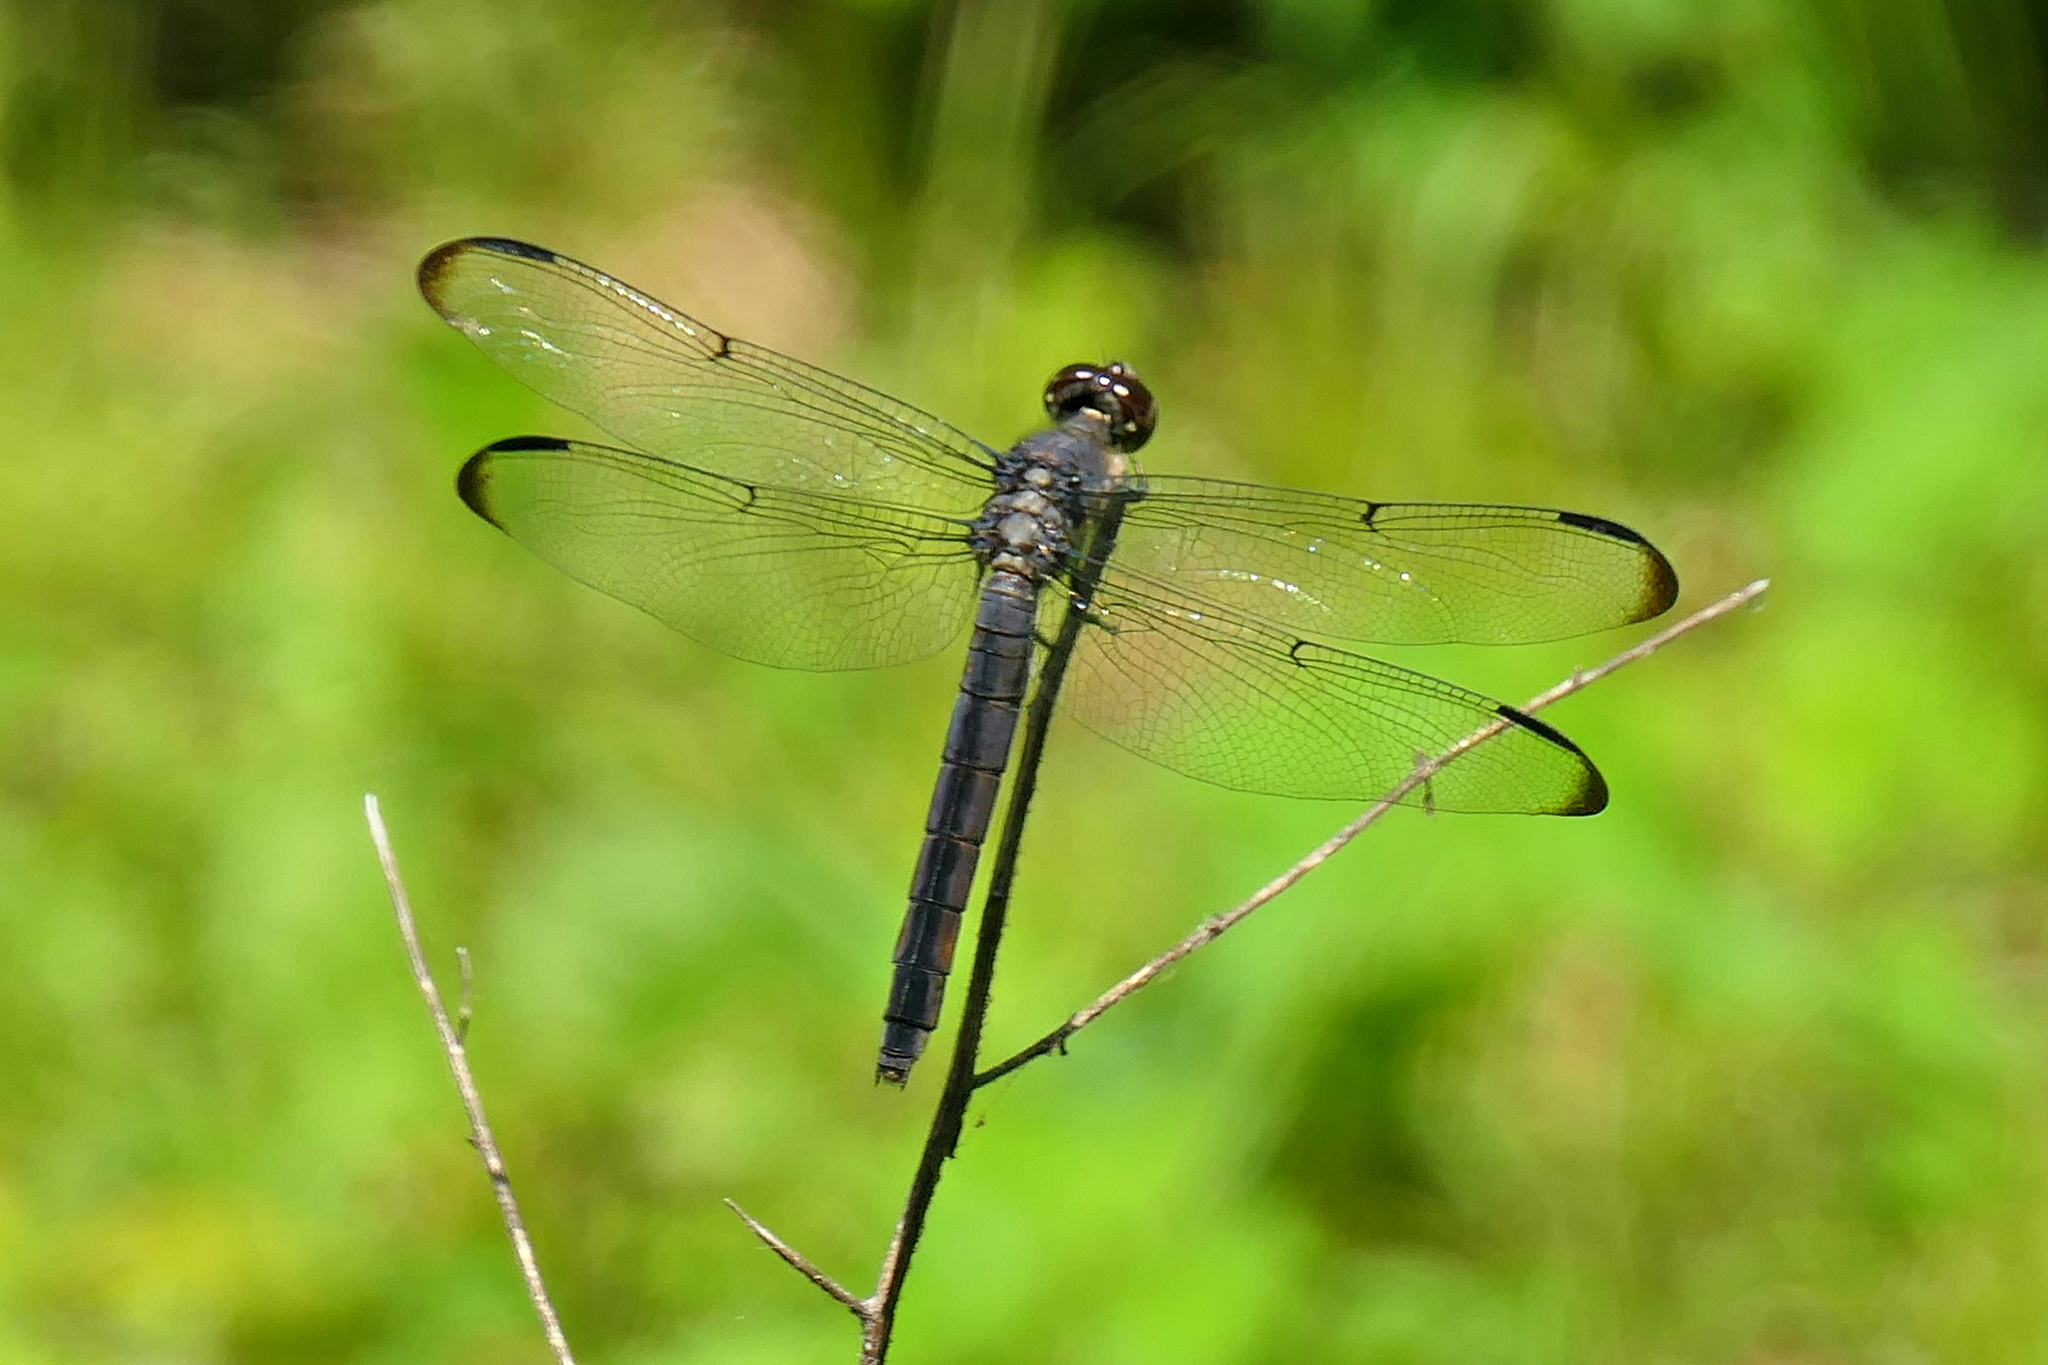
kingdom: Animalia
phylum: Arthropoda
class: Insecta
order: Odonata
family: Libellulidae
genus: Libellula
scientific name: Libellula incesta
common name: Slaty skimmer
